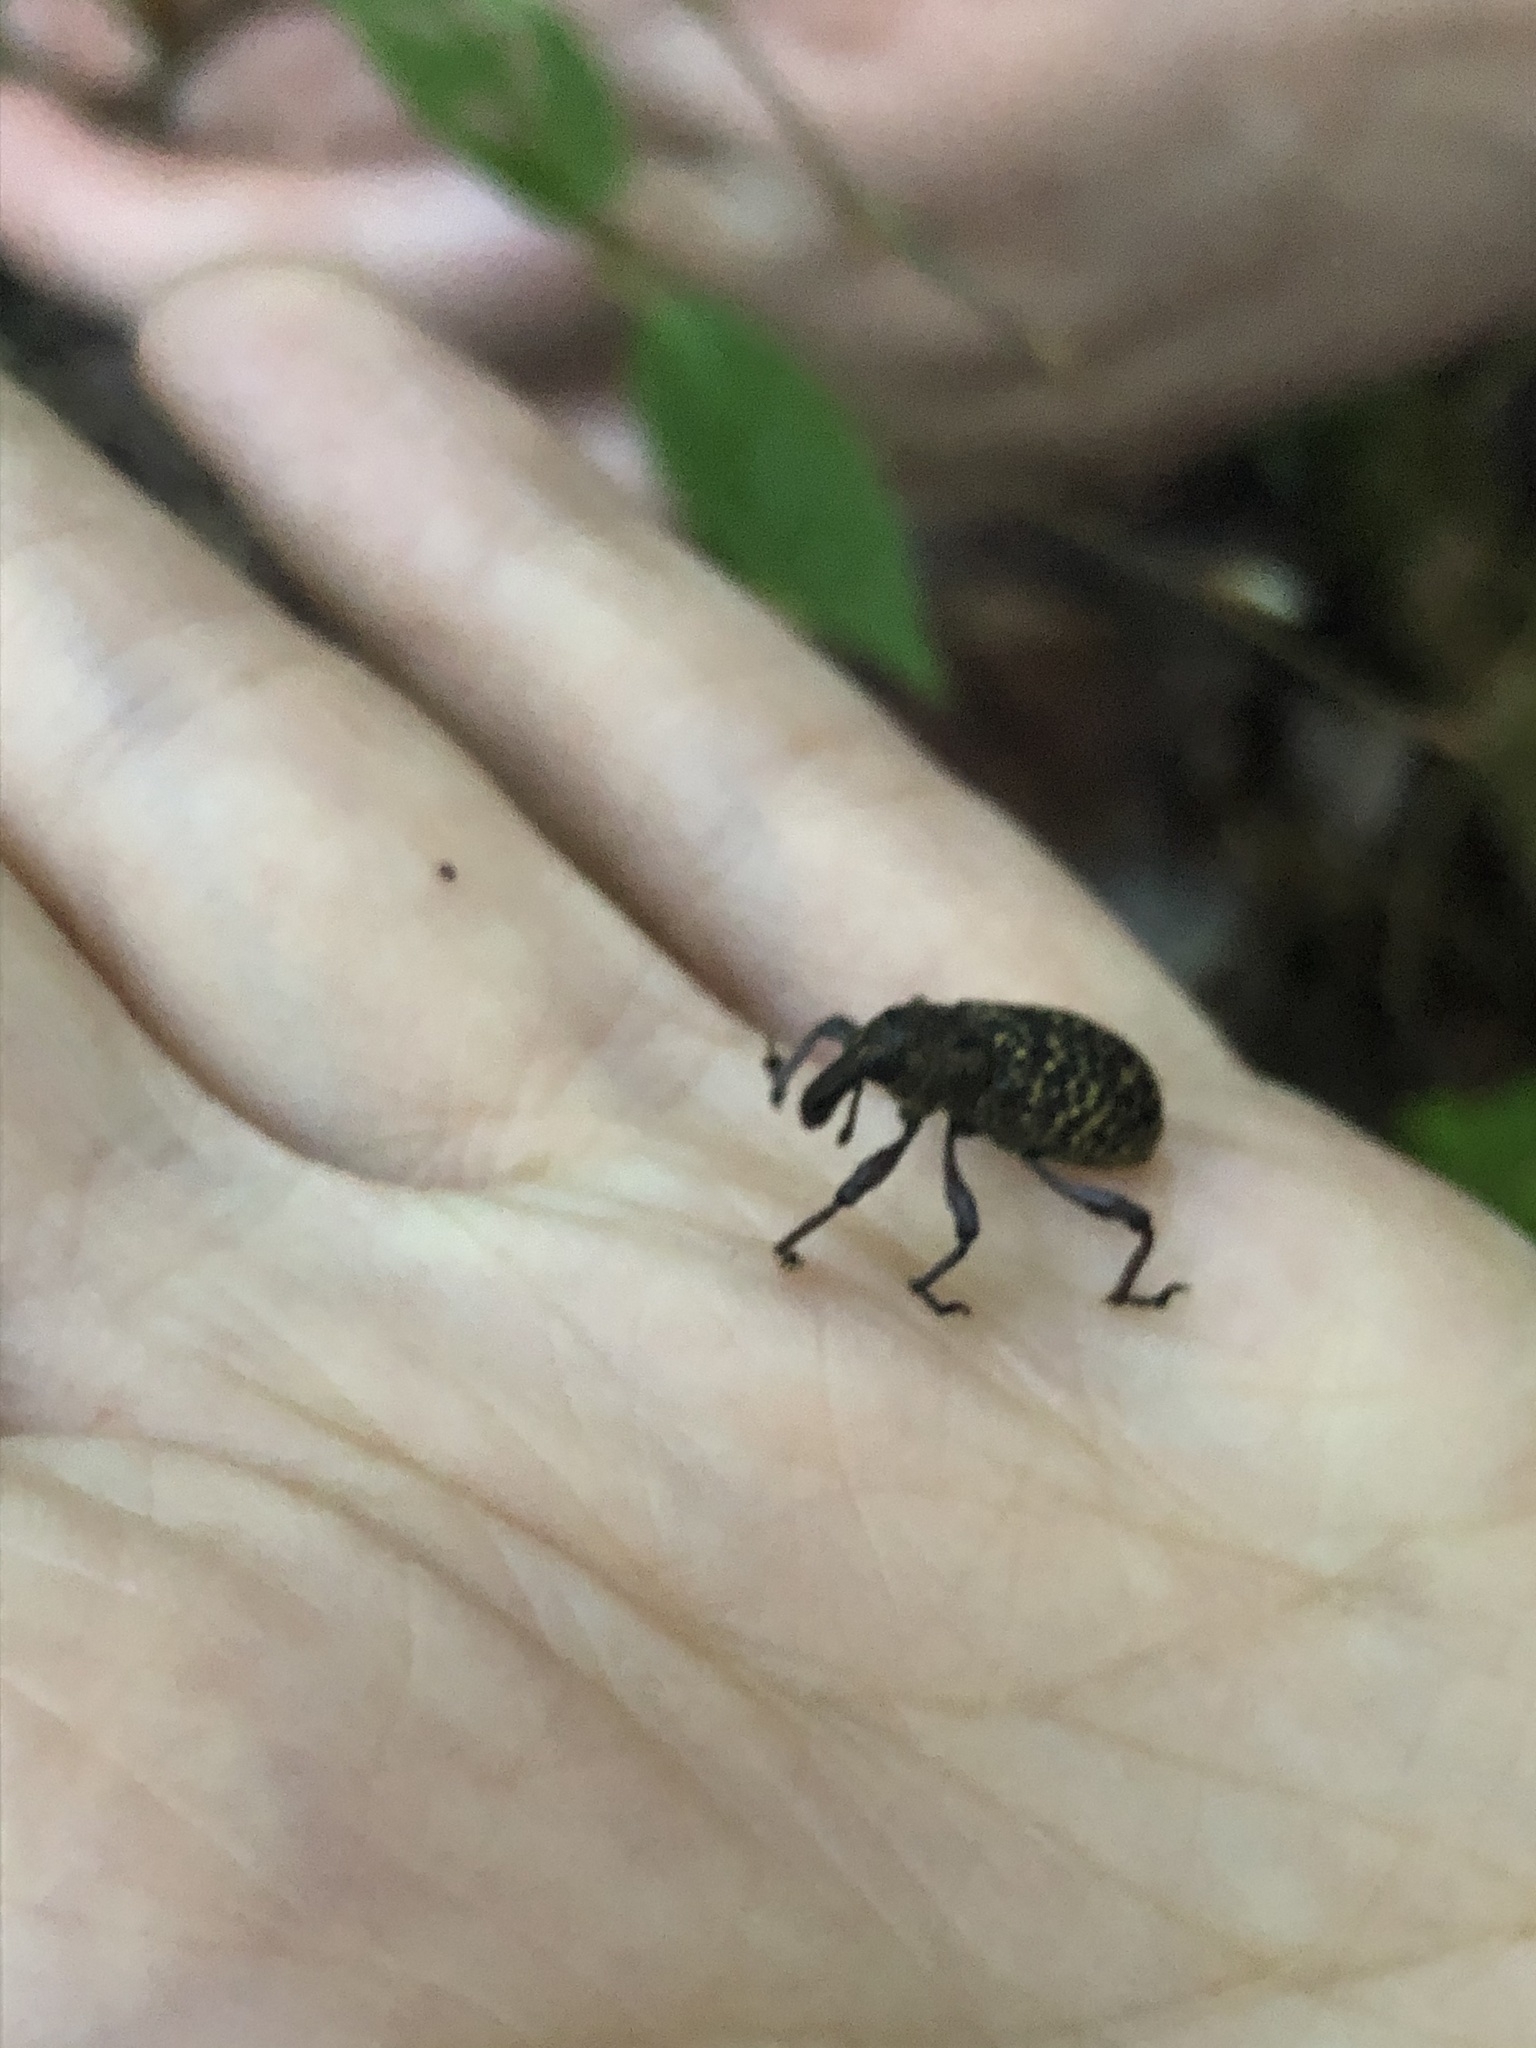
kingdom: Animalia
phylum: Arthropoda
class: Insecta
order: Coleoptera
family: Curculionidae
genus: Hylobius
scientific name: Hylobius pinicola
